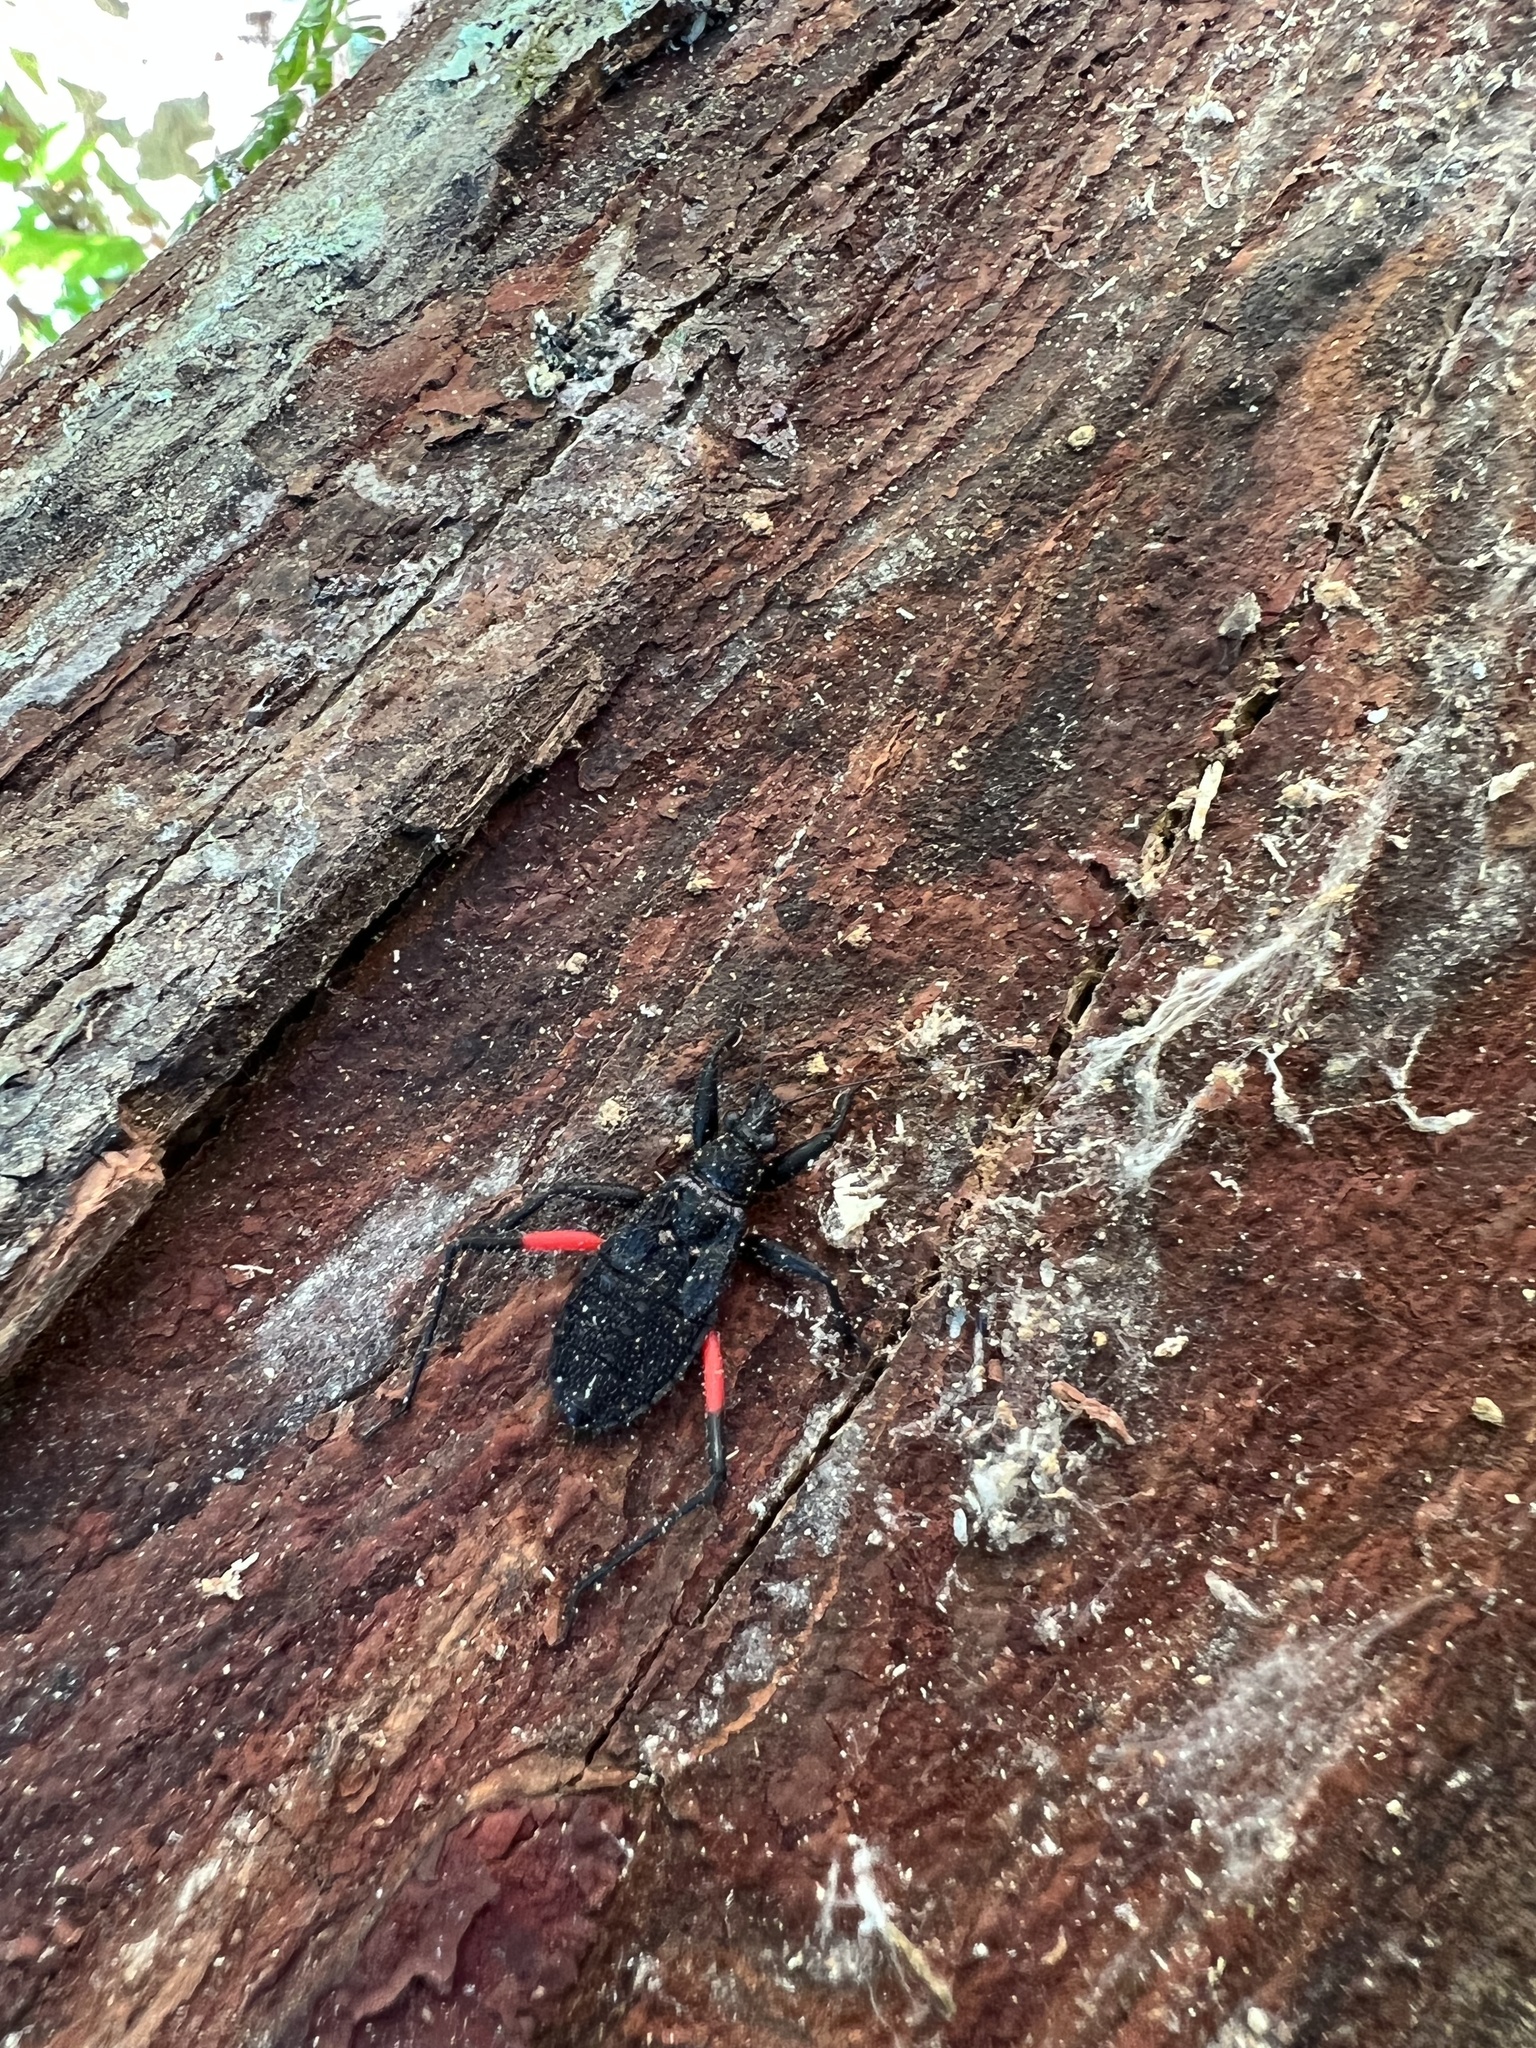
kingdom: Animalia
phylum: Arthropoda
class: Insecta
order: Hemiptera
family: Reduviidae
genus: Microtomus
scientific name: Microtomus purcis
